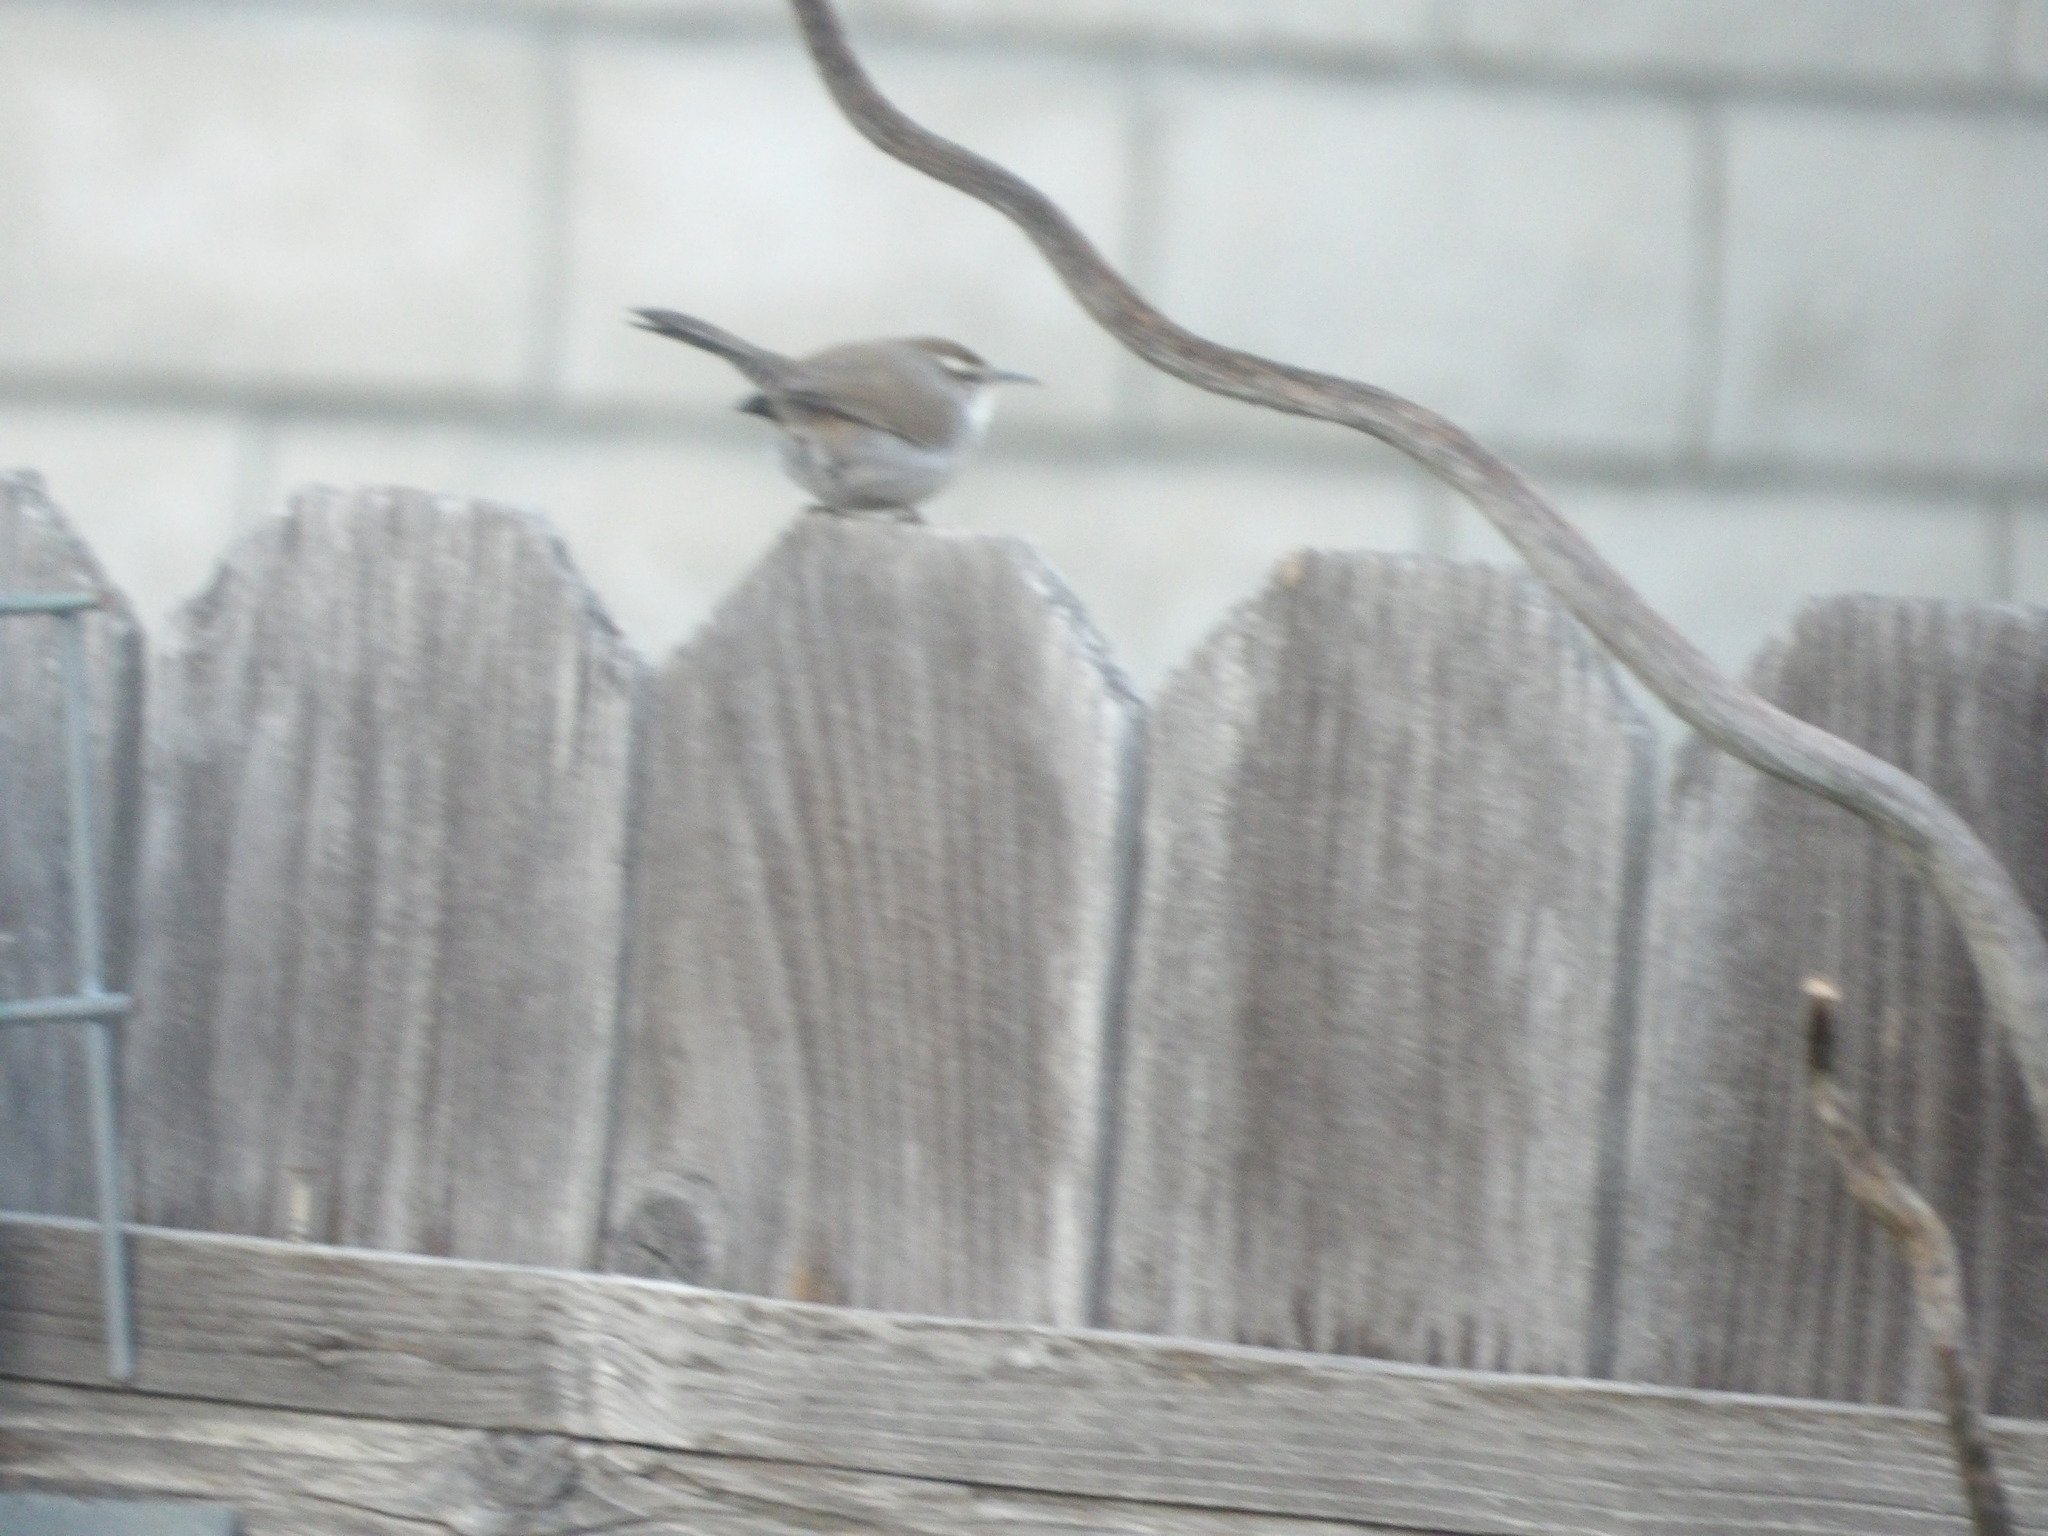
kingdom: Animalia
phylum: Chordata
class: Aves
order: Passeriformes
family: Troglodytidae
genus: Thryomanes
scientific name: Thryomanes bewickii
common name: Bewick's wren
